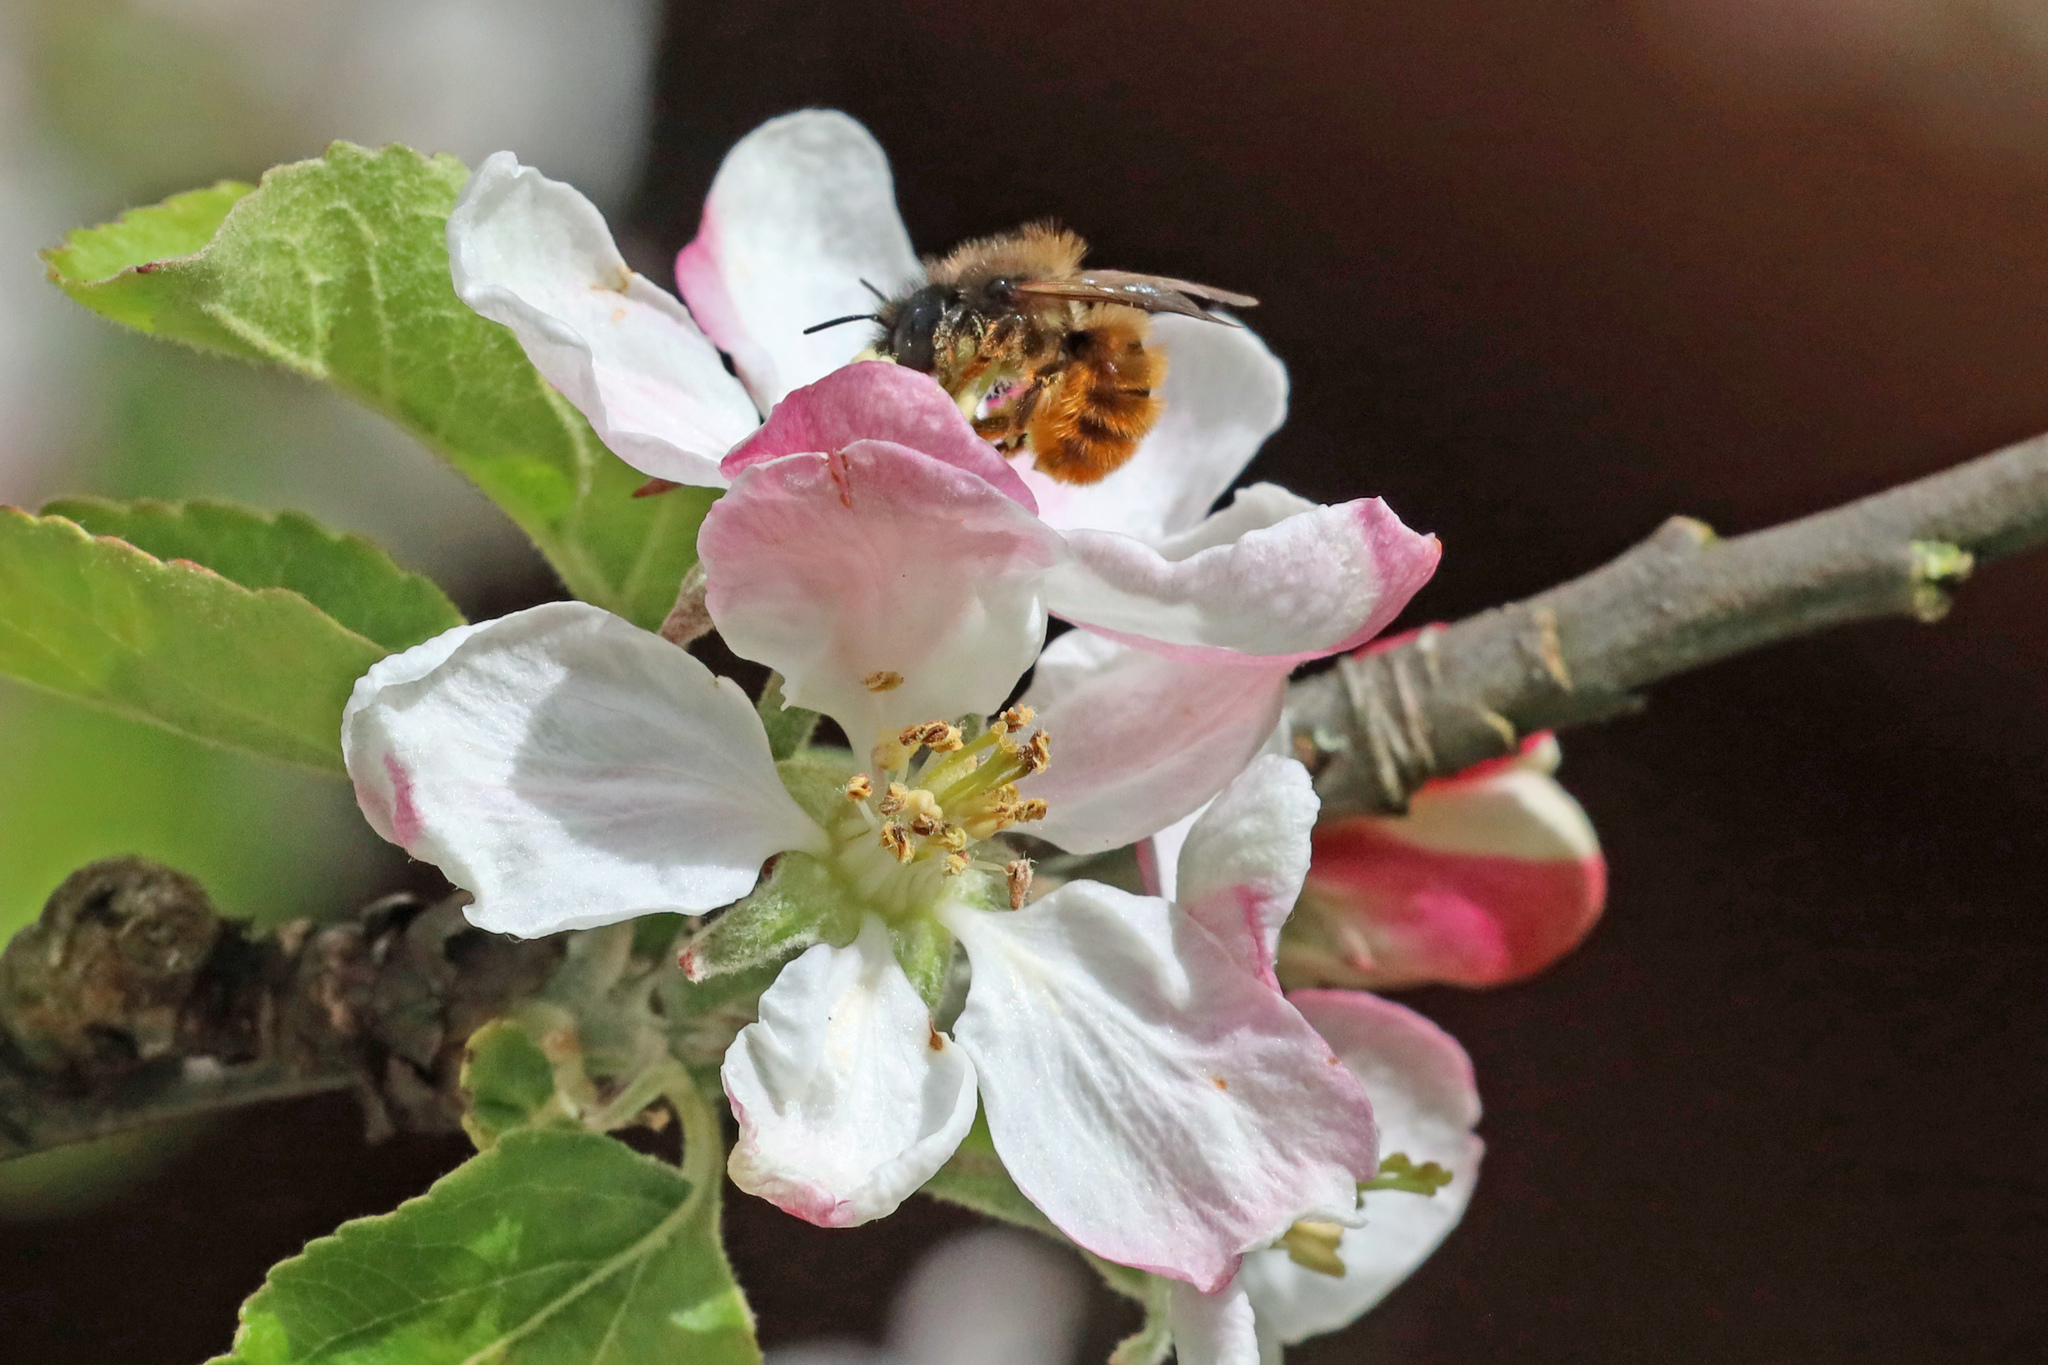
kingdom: Animalia
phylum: Arthropoda
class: Insecta
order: Hymenoptera
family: Megachilidae
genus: Osmia
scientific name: Osmia bicornis
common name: Red mason bee
